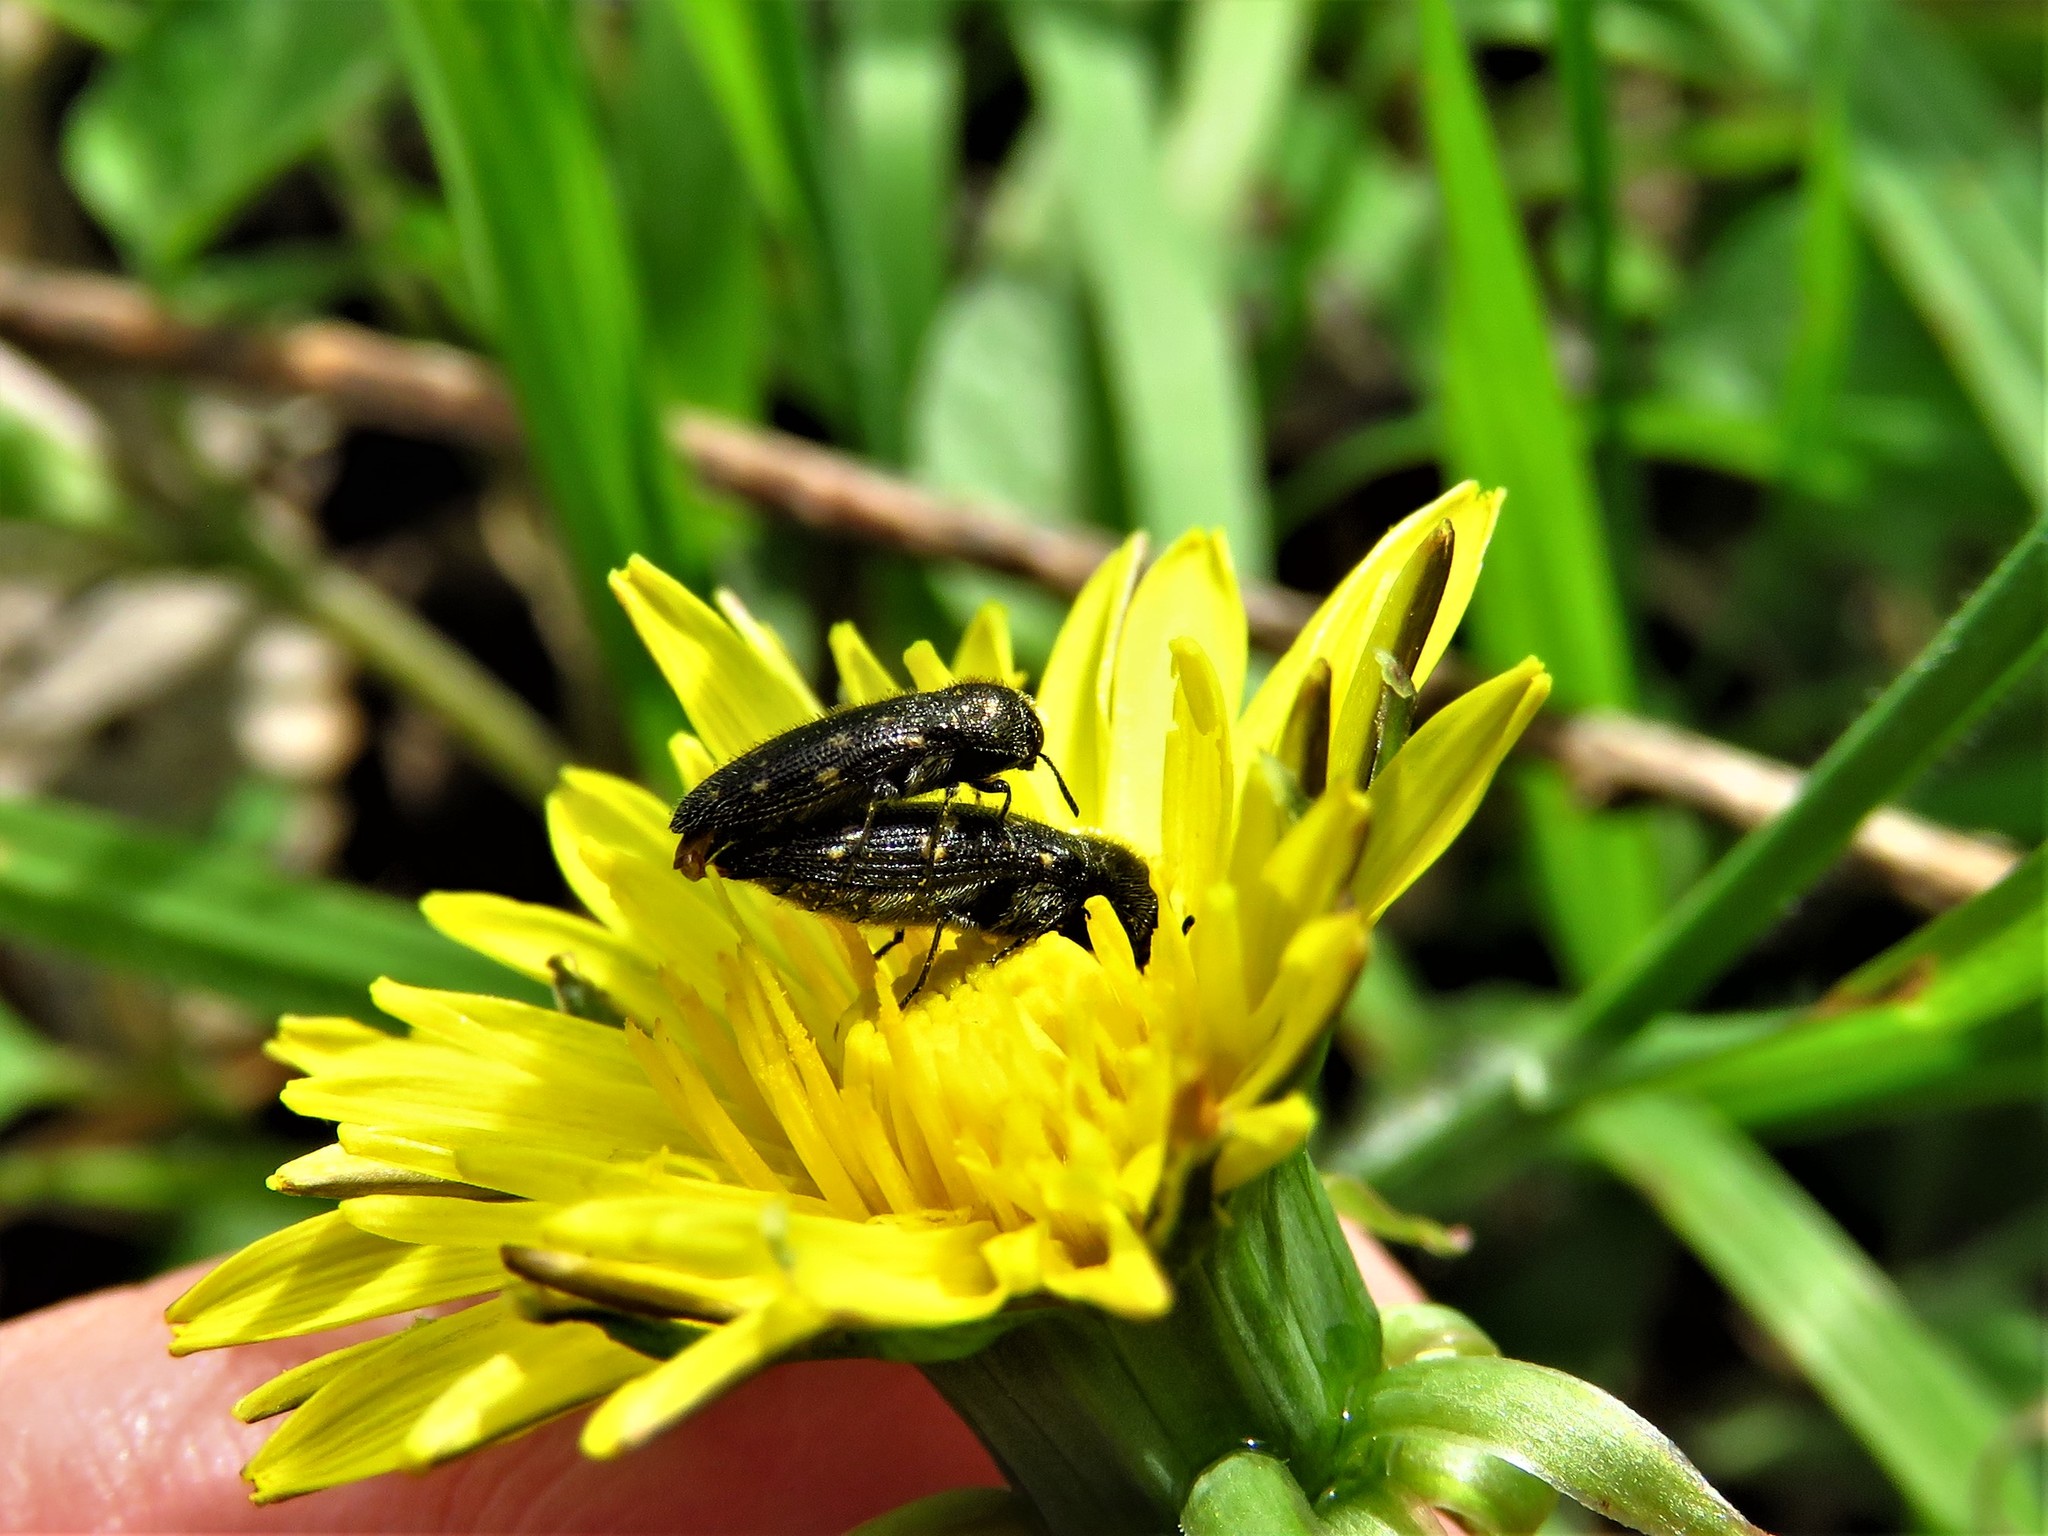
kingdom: Animalia
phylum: Arthropoda
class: Insecta
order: Coleoptera
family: Buprestidae
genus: Acmaeodera
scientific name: Acmaeodera tubulus
